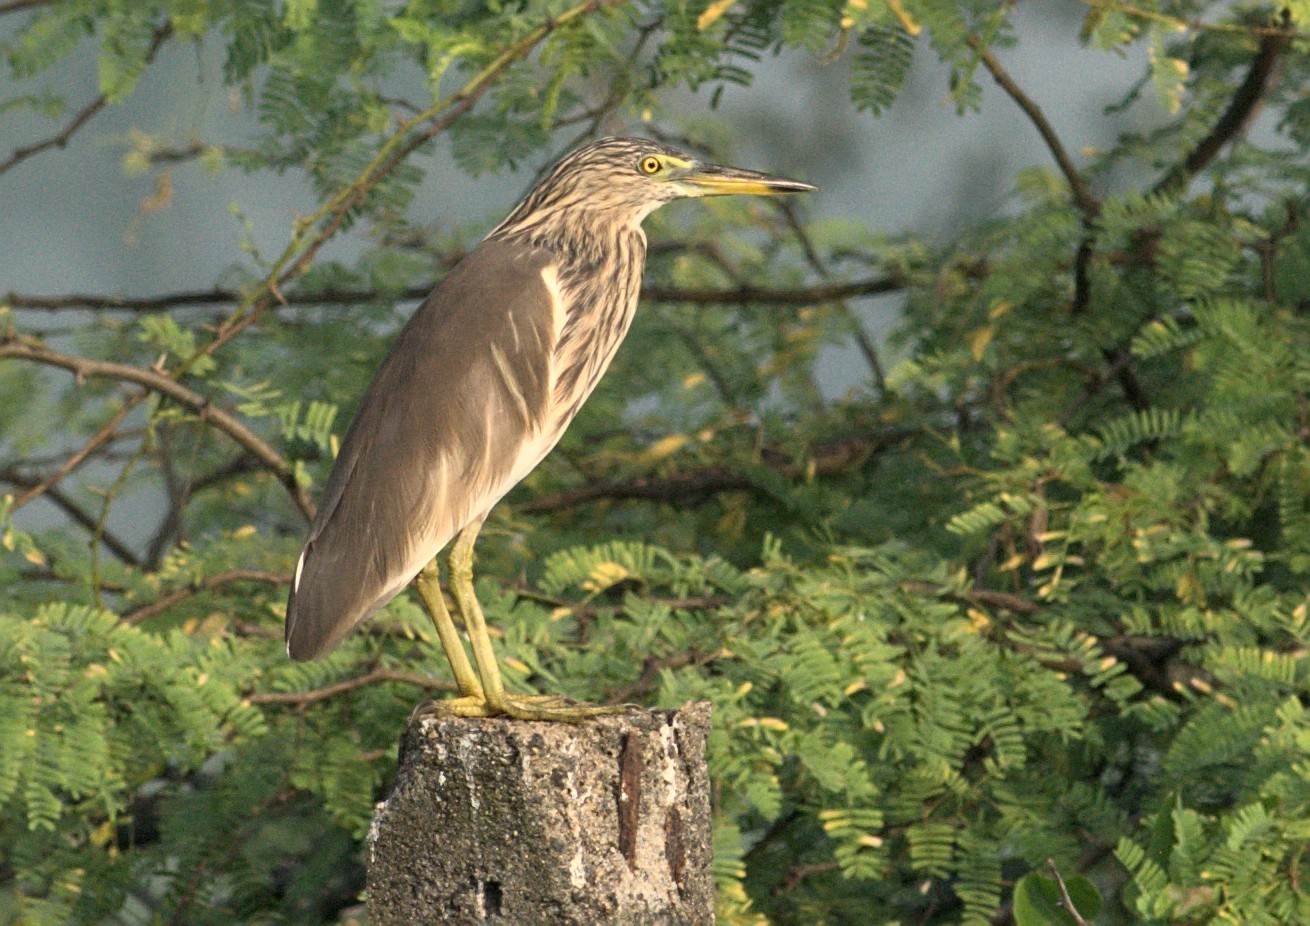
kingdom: Animalia
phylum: Chordata
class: Aves
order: Pelecaniformes
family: Ardeidae
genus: Ardeola
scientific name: Ardeola grayii
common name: Indian pond heron
